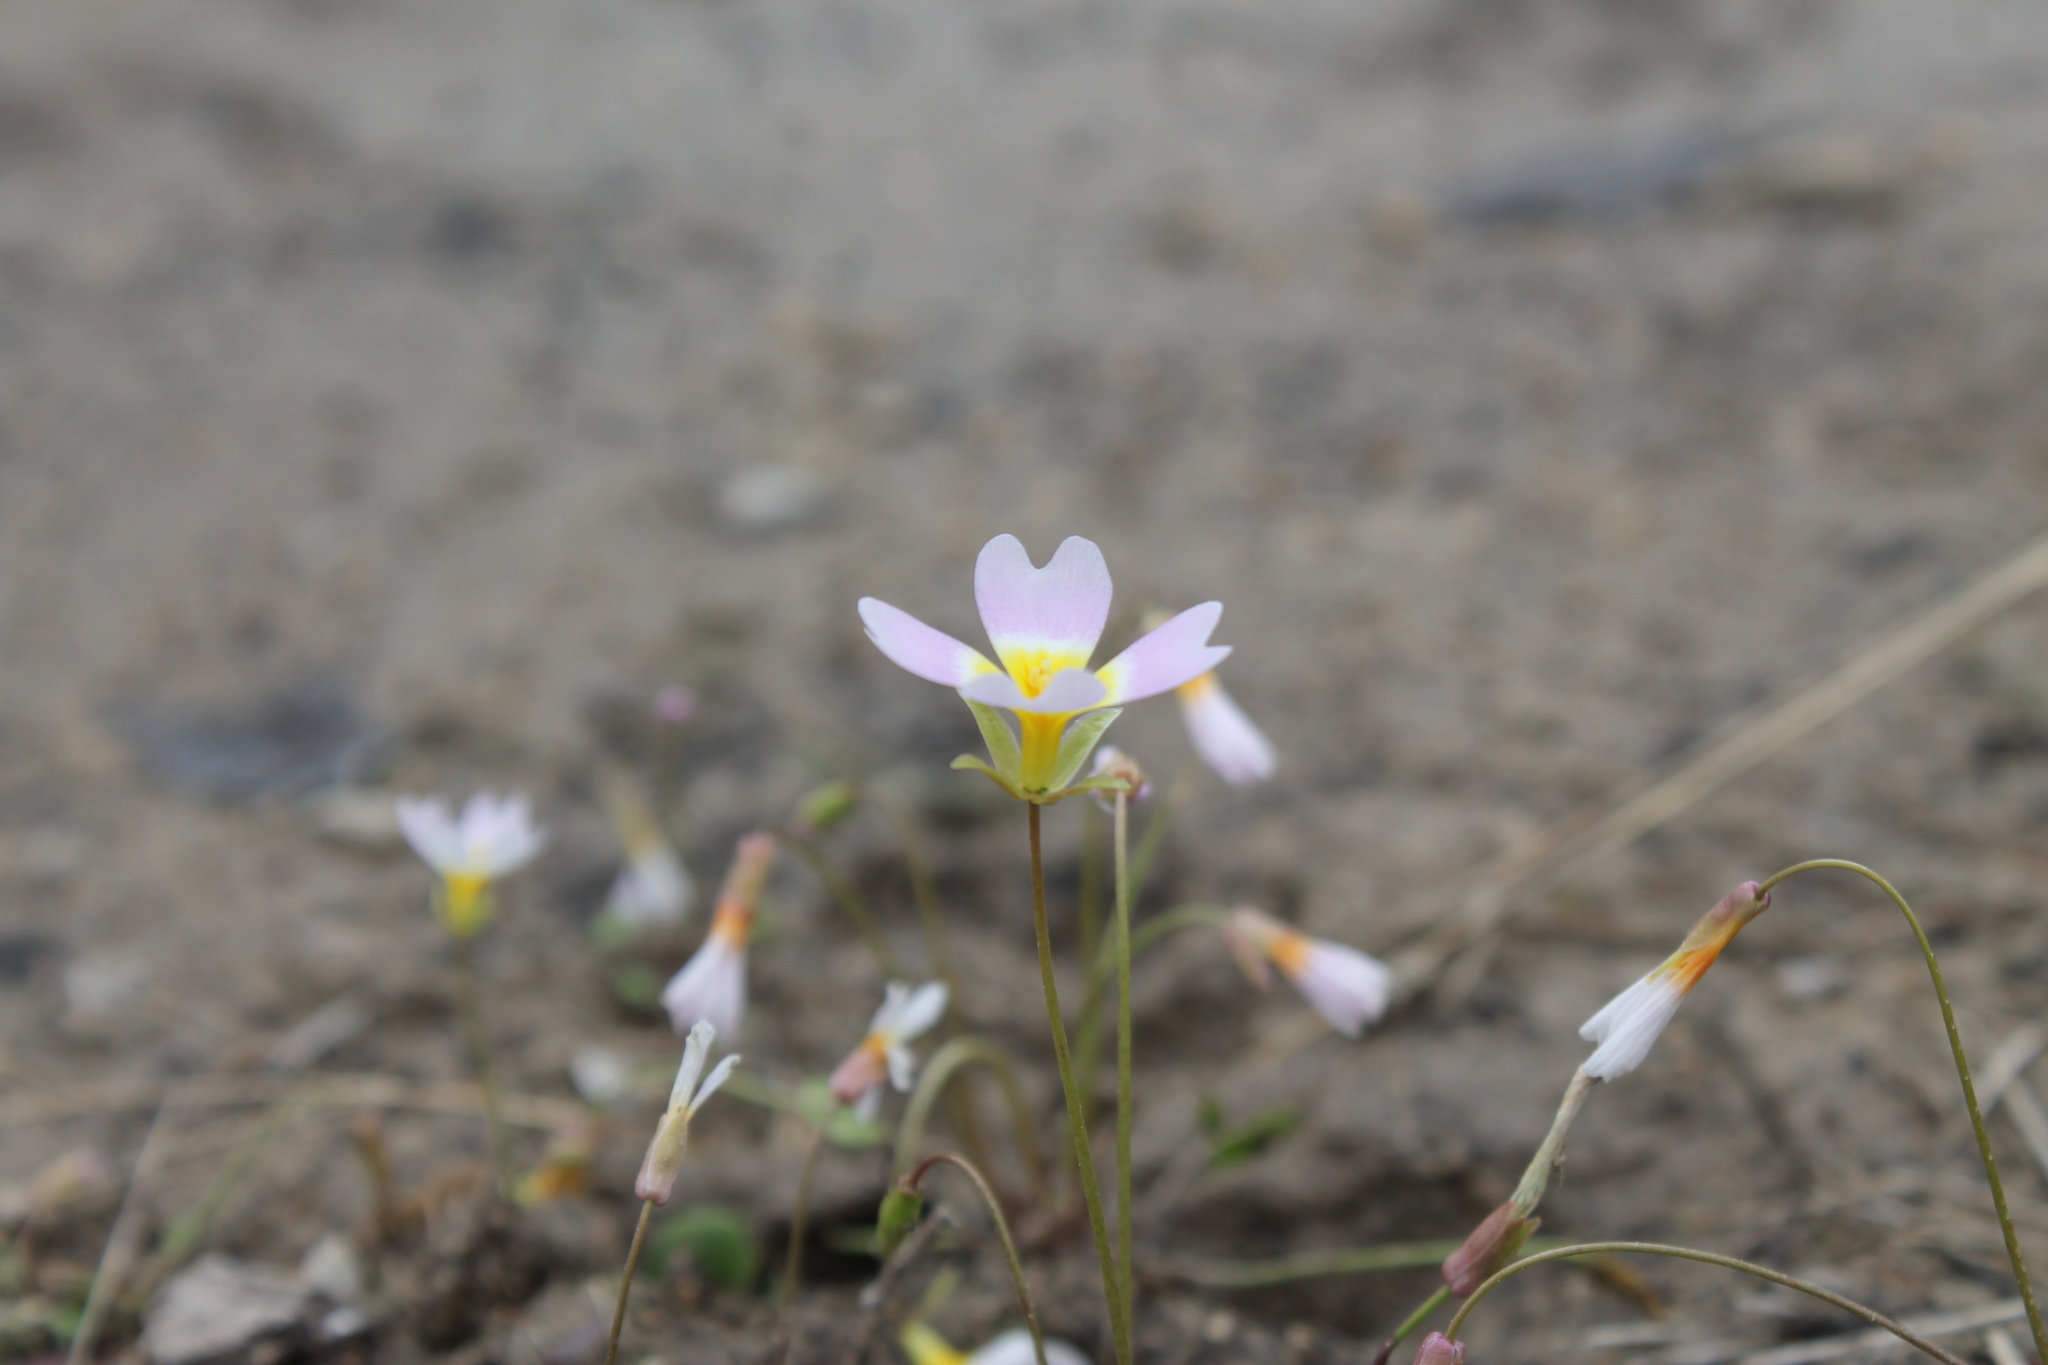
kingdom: Plantae
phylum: Tracheophyta
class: Magnoliopsida
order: Brassicales
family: Brassicaceae
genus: Leavenworthia
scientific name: Leavenworthia stylosa
